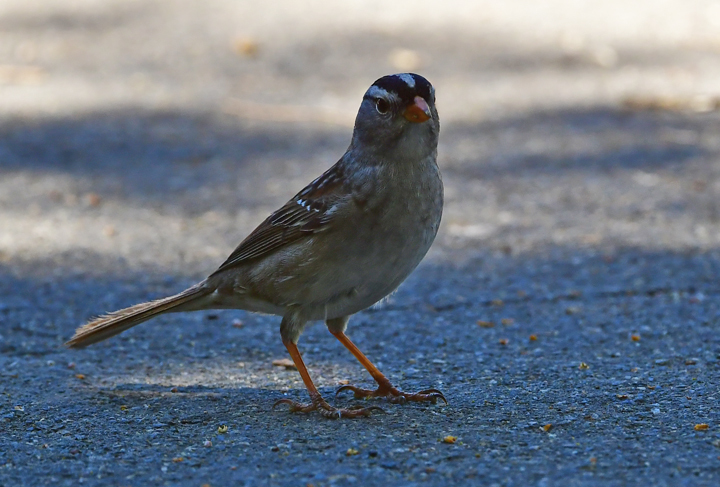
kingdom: Animalia
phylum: Chordata
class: Aves
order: Passeriformes
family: Passerellidae
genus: Zonotrichia
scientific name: Zonotrichia leucophrys
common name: White-crowned sparrow
